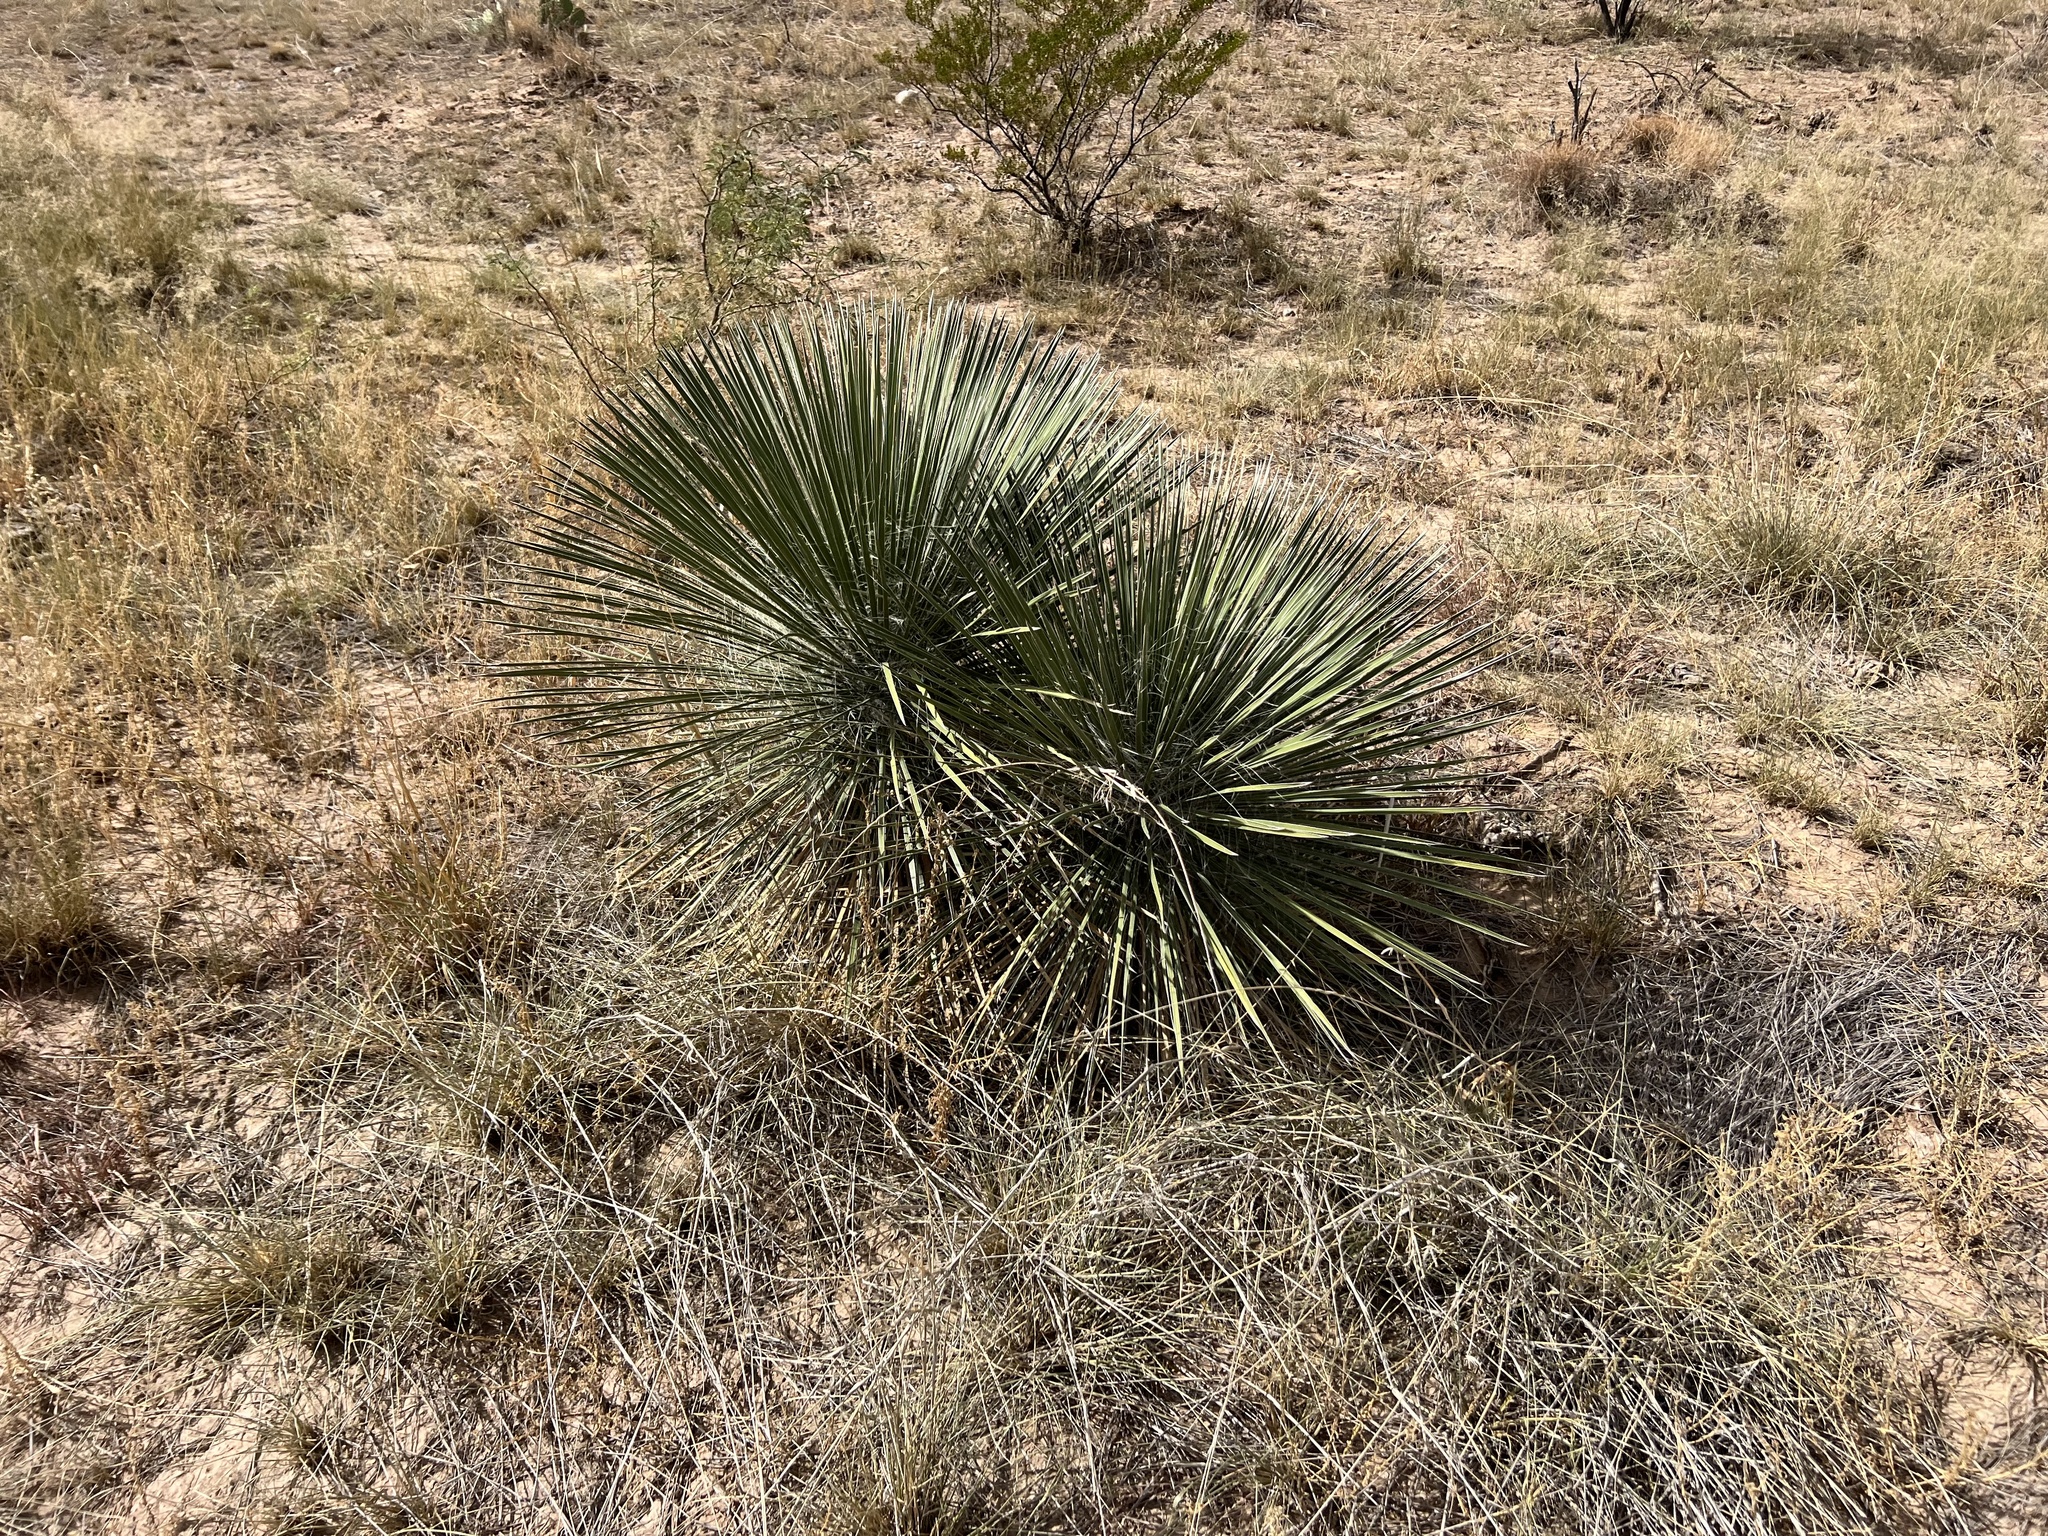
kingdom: Plantae
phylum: Tracheophyta
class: Liliopsida
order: Asparagales
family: Asparagaceae
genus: Yucca
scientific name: Yucca elata
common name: Palmella
